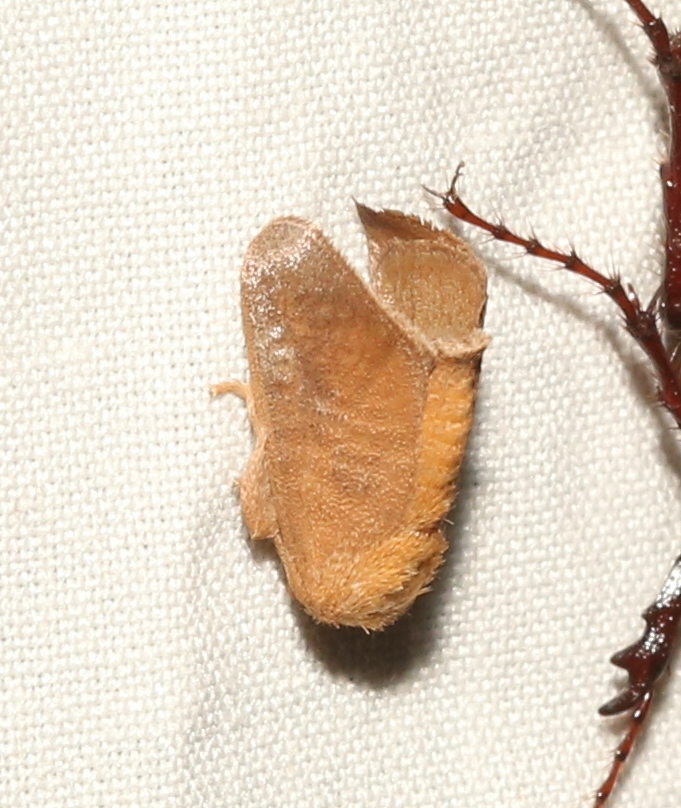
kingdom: Animalia
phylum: Arthropoda
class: Insecta
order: Lepidoptera
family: Limacodidae
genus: Isa
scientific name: Isa textula
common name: Crowned slug moth
